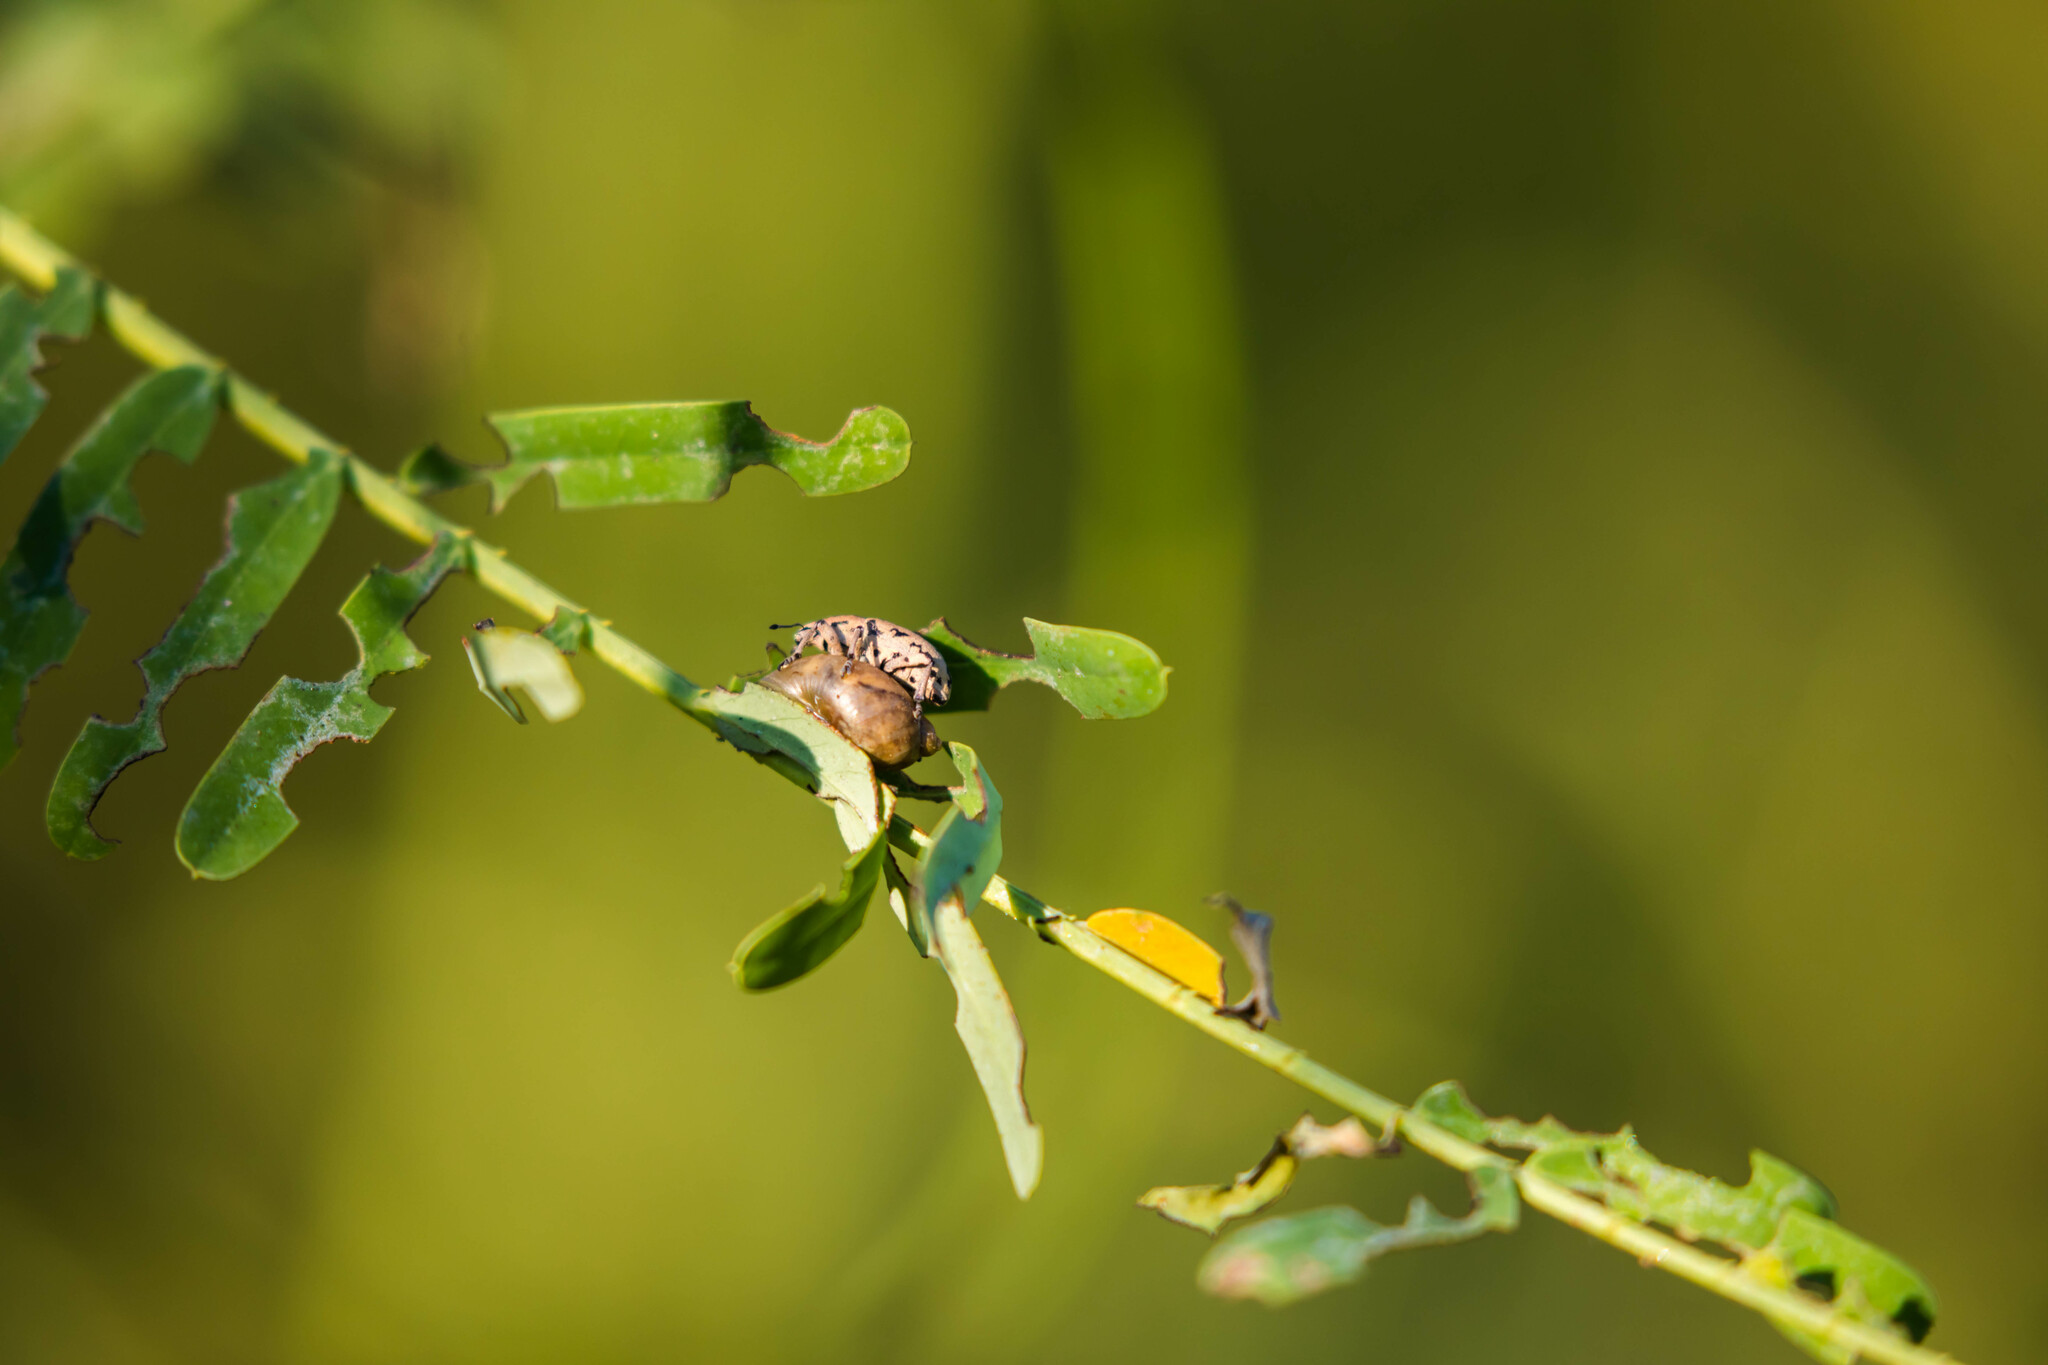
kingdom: Animalia
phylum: Arthropoda
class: Insecta
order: Coleoptera
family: Curculionidae
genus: Eudiagogus
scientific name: Eudiagogus rosenschoeldi
